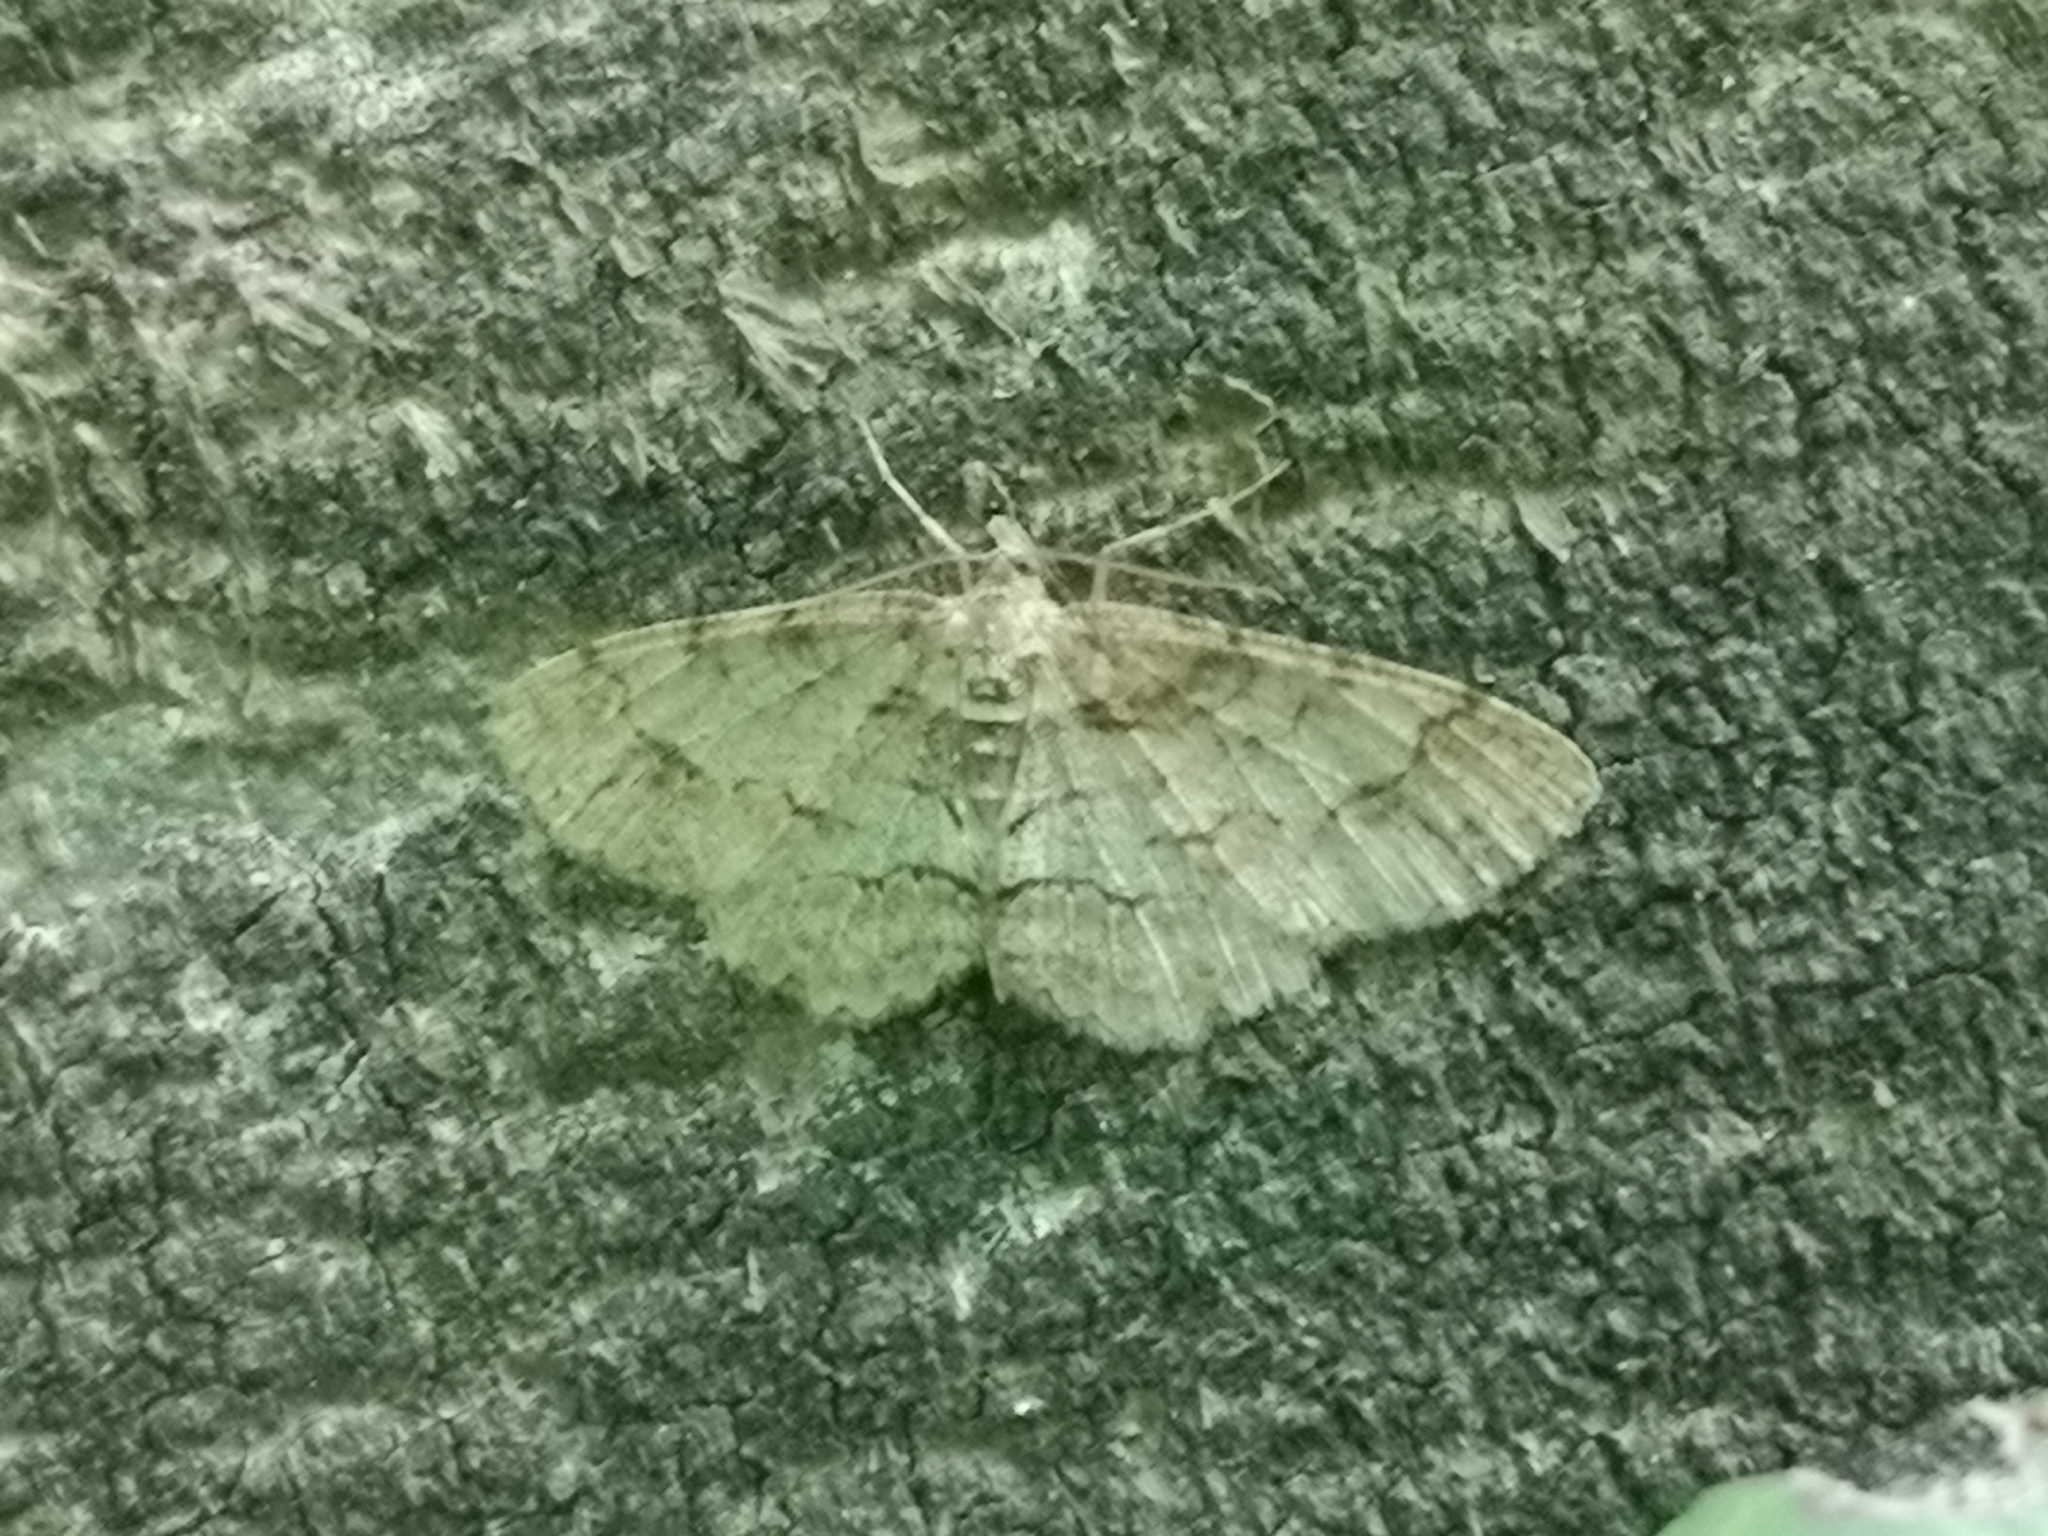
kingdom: Animalia
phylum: Arthropoda
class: Insecta
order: Lepidoptera
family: Geometridae
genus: Paradarisa
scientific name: Paradarisa consonaria
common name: Square spot
